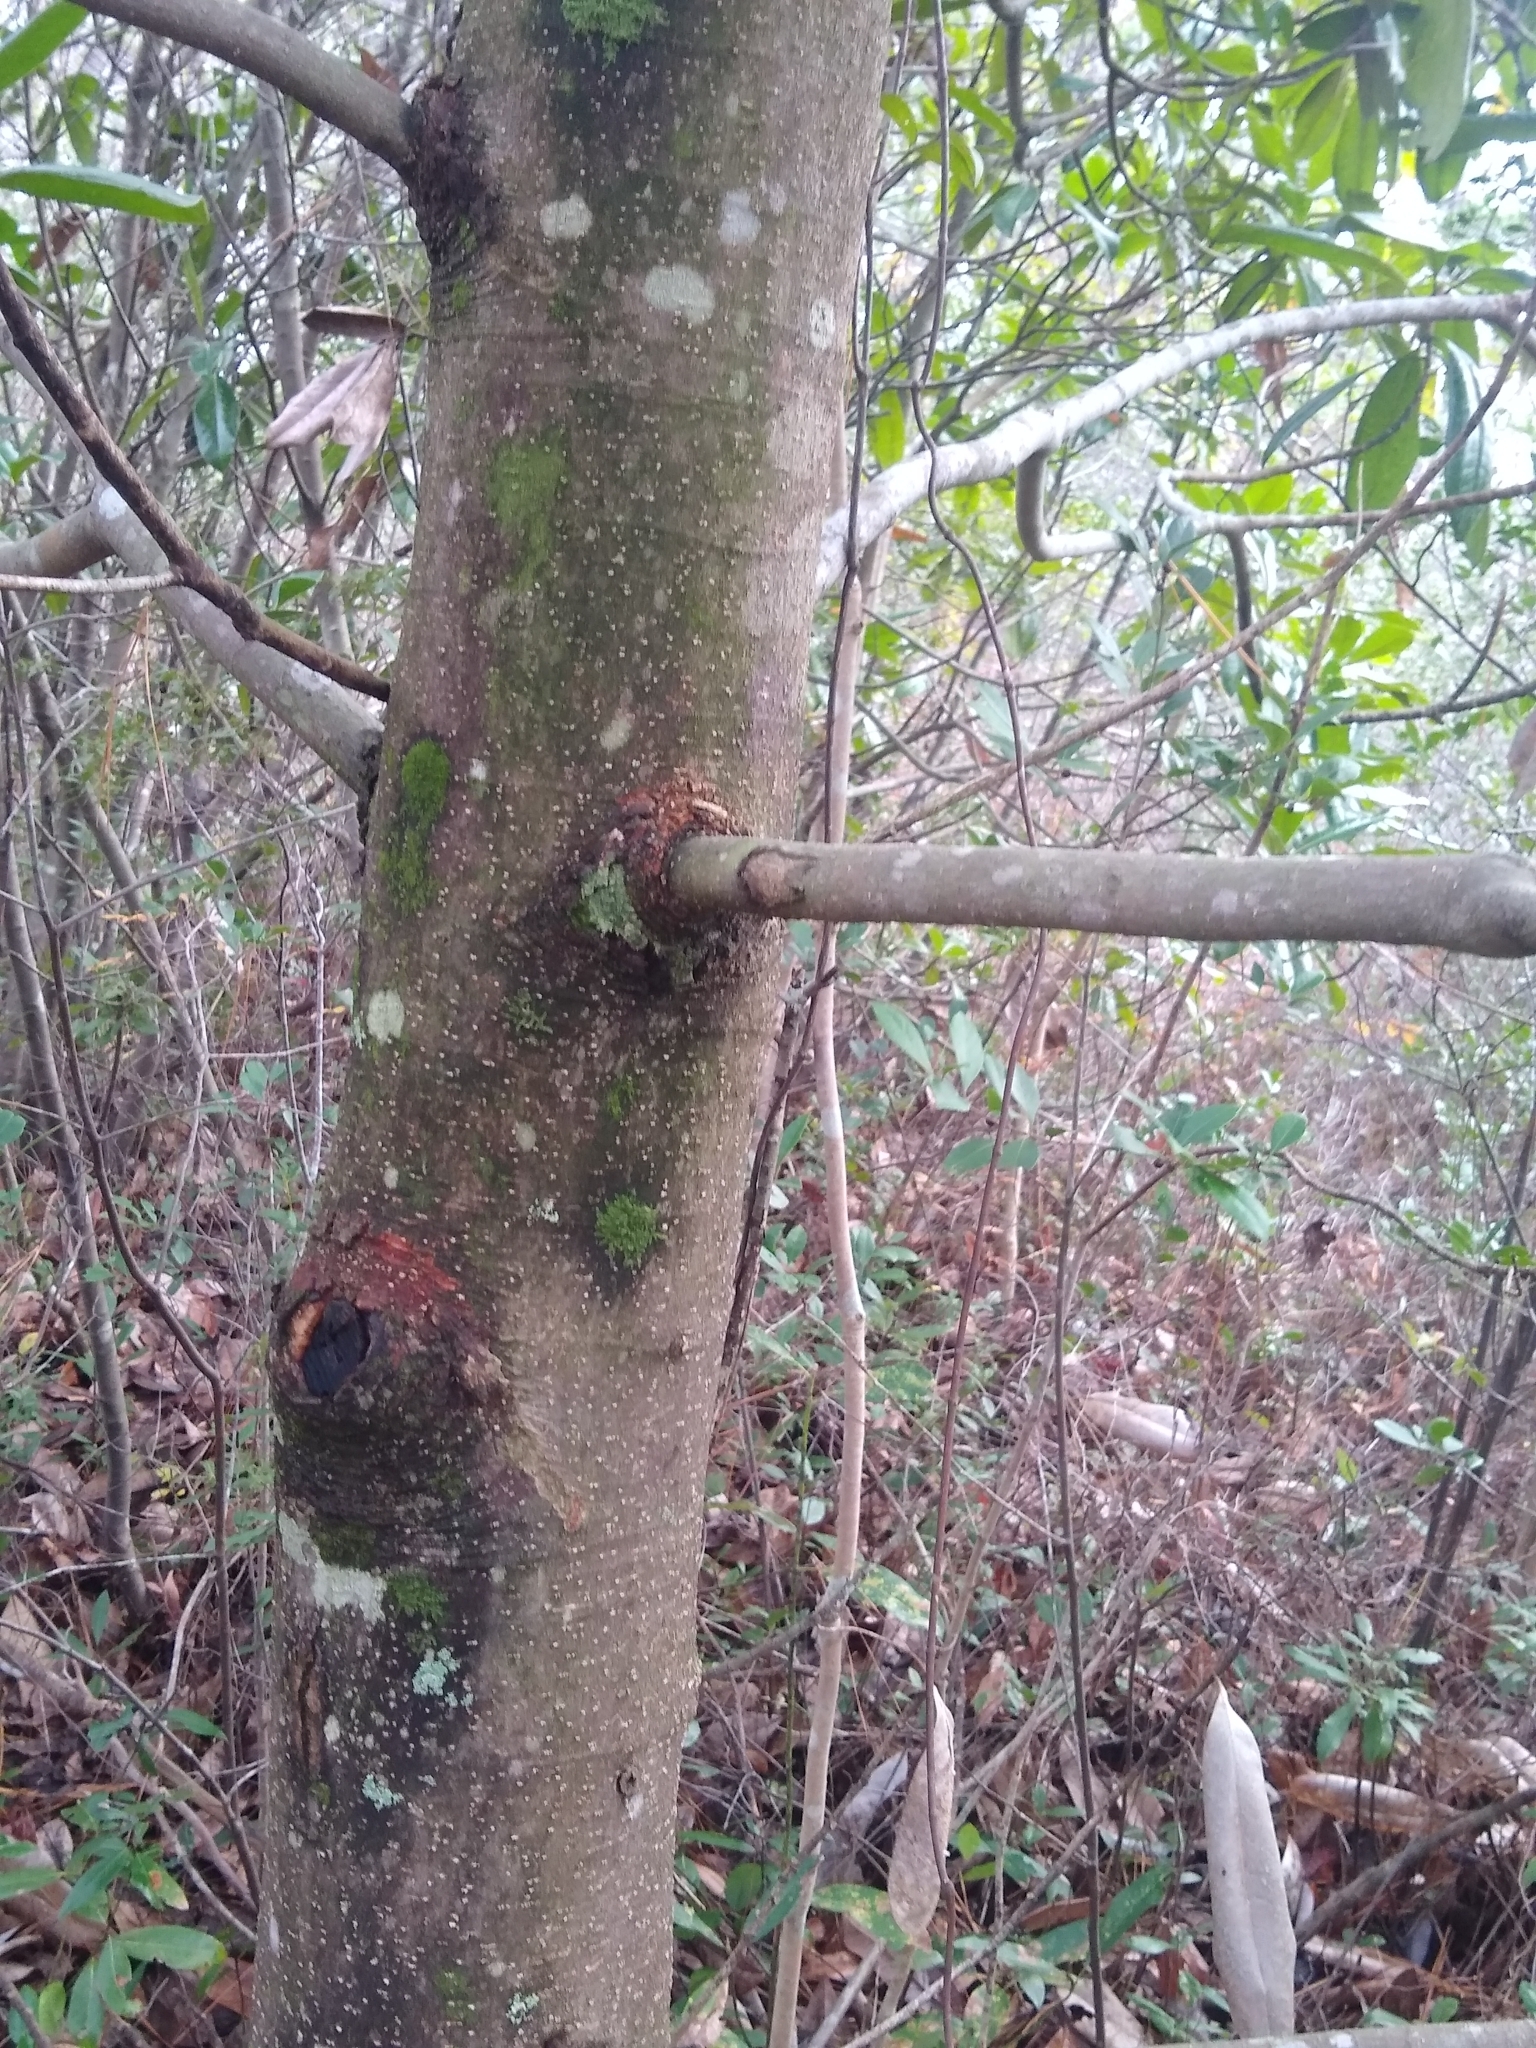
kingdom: Plantae
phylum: Tracheophyta
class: Magnoliopsida
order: Magnoliales
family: Magnoliaceae
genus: Magnolia
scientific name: Magnolia grandiflora
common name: Southern magnolia
